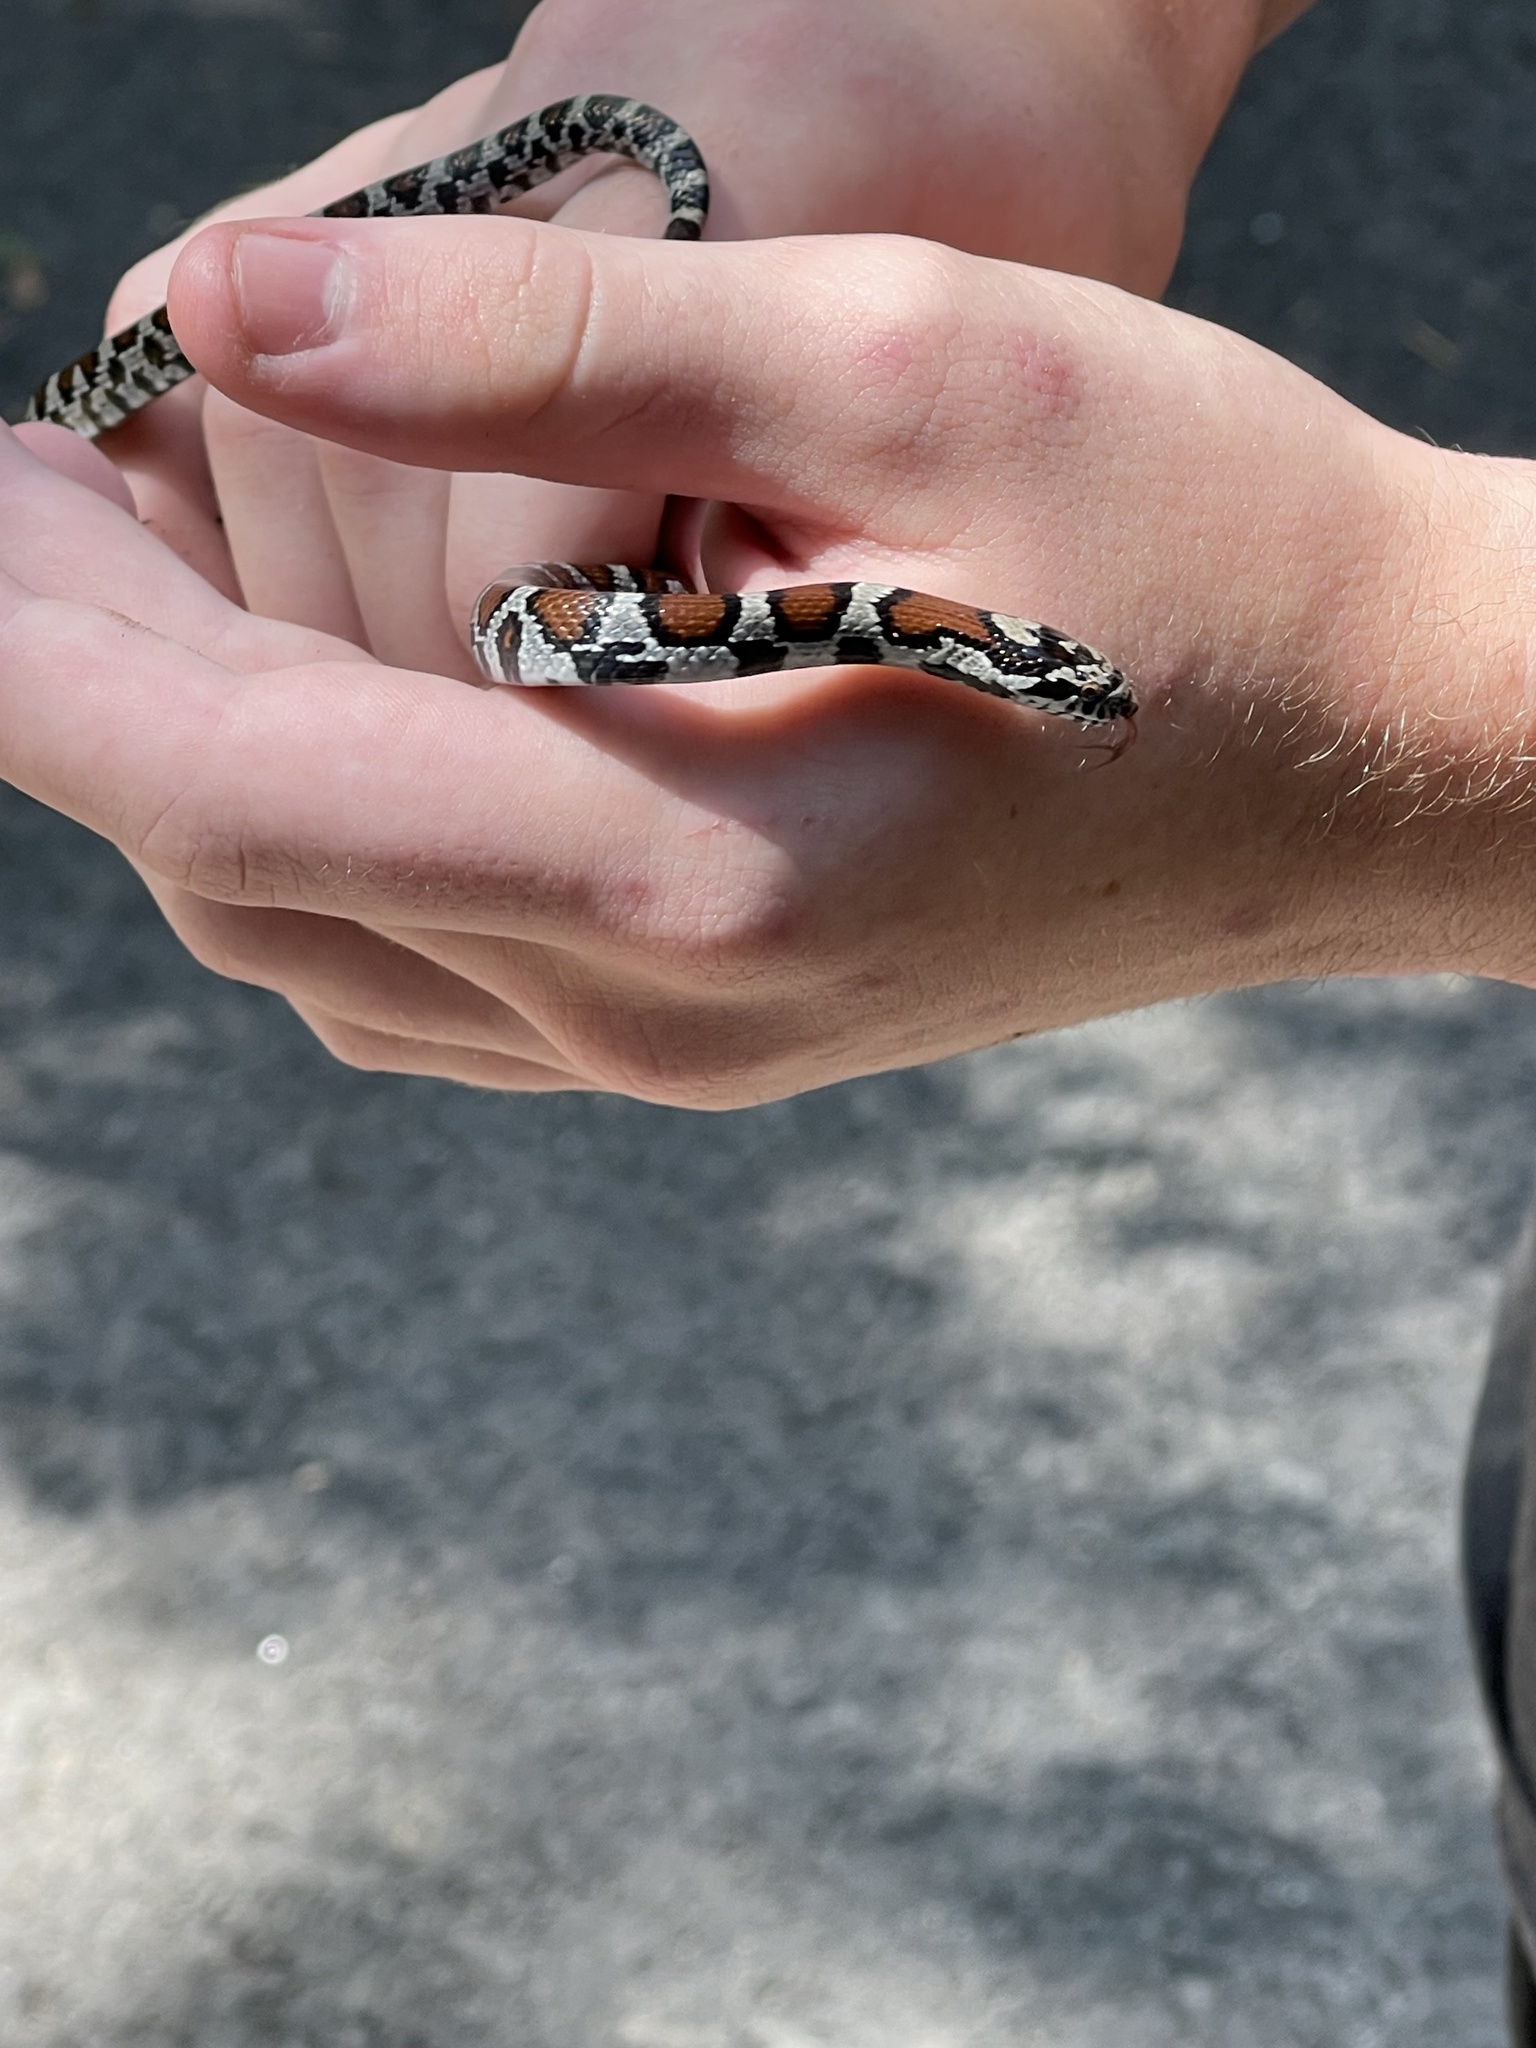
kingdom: Animalia
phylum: Chordata
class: Squamata
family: Colubridae
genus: Lampropeltis
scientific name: Lampropeltis triangulum
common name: Eastern milksnake
